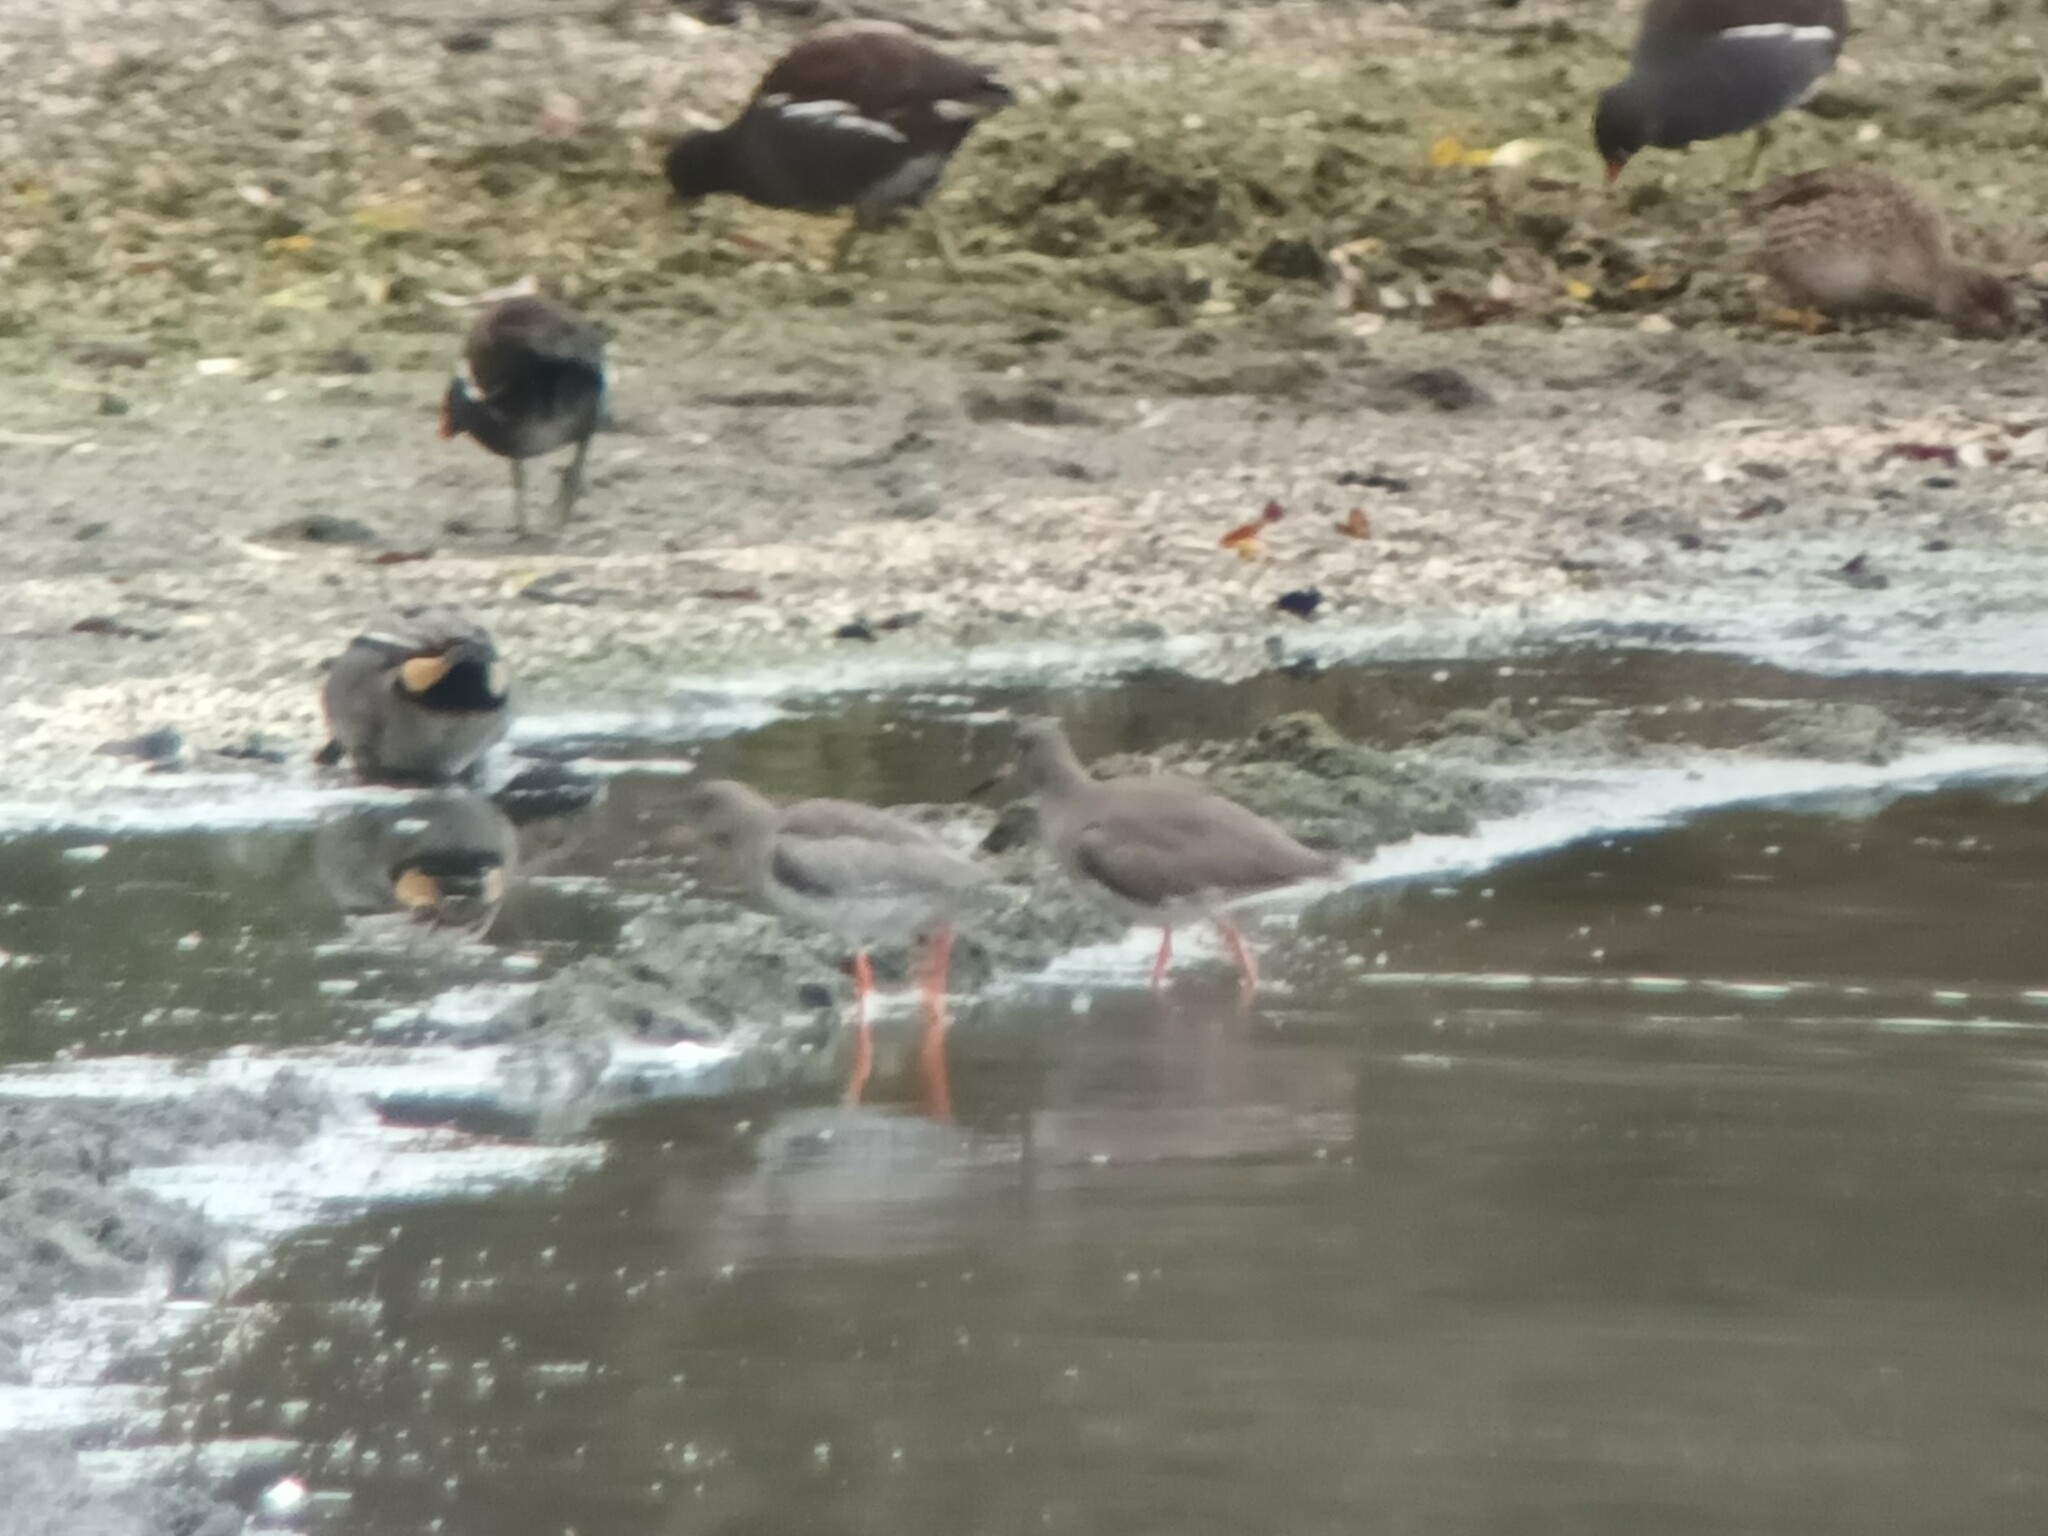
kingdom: Animalia
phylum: Chordata
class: Aves
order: Charadriiformes
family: Scolopacidae
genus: Tringa
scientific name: Tringa totanus
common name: Common redshank
